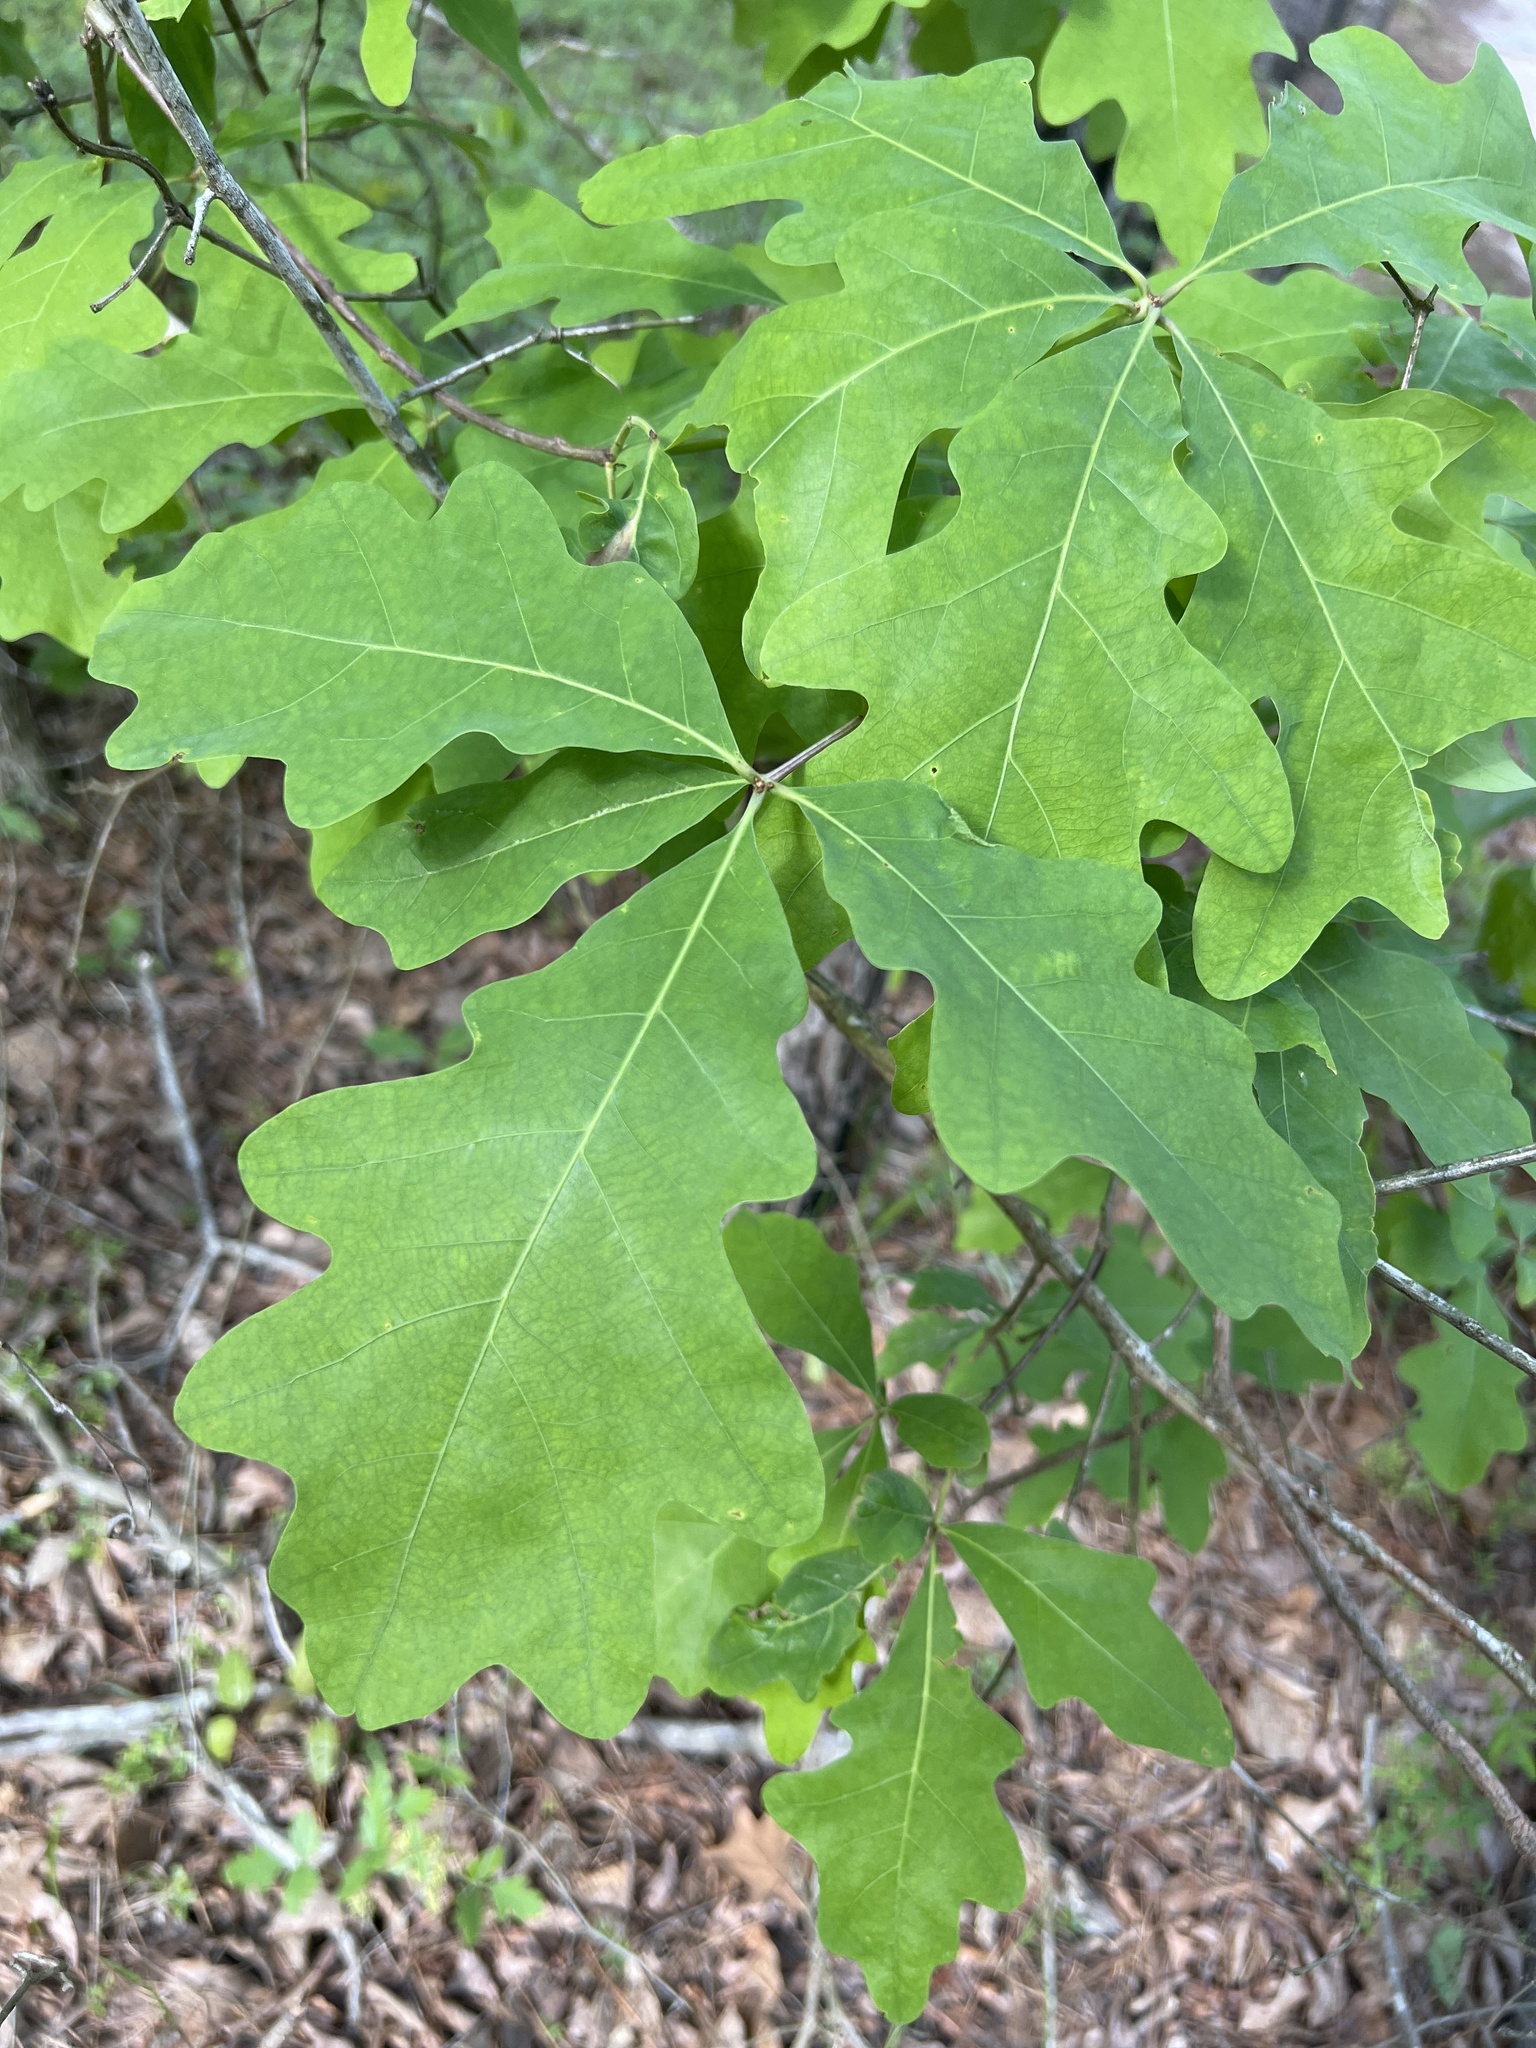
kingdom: Plantae
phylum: Tracheophyta
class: Magnoliopsida
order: Fagales
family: Fagaceae
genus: Quercus
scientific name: Quercus alba
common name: White oak
